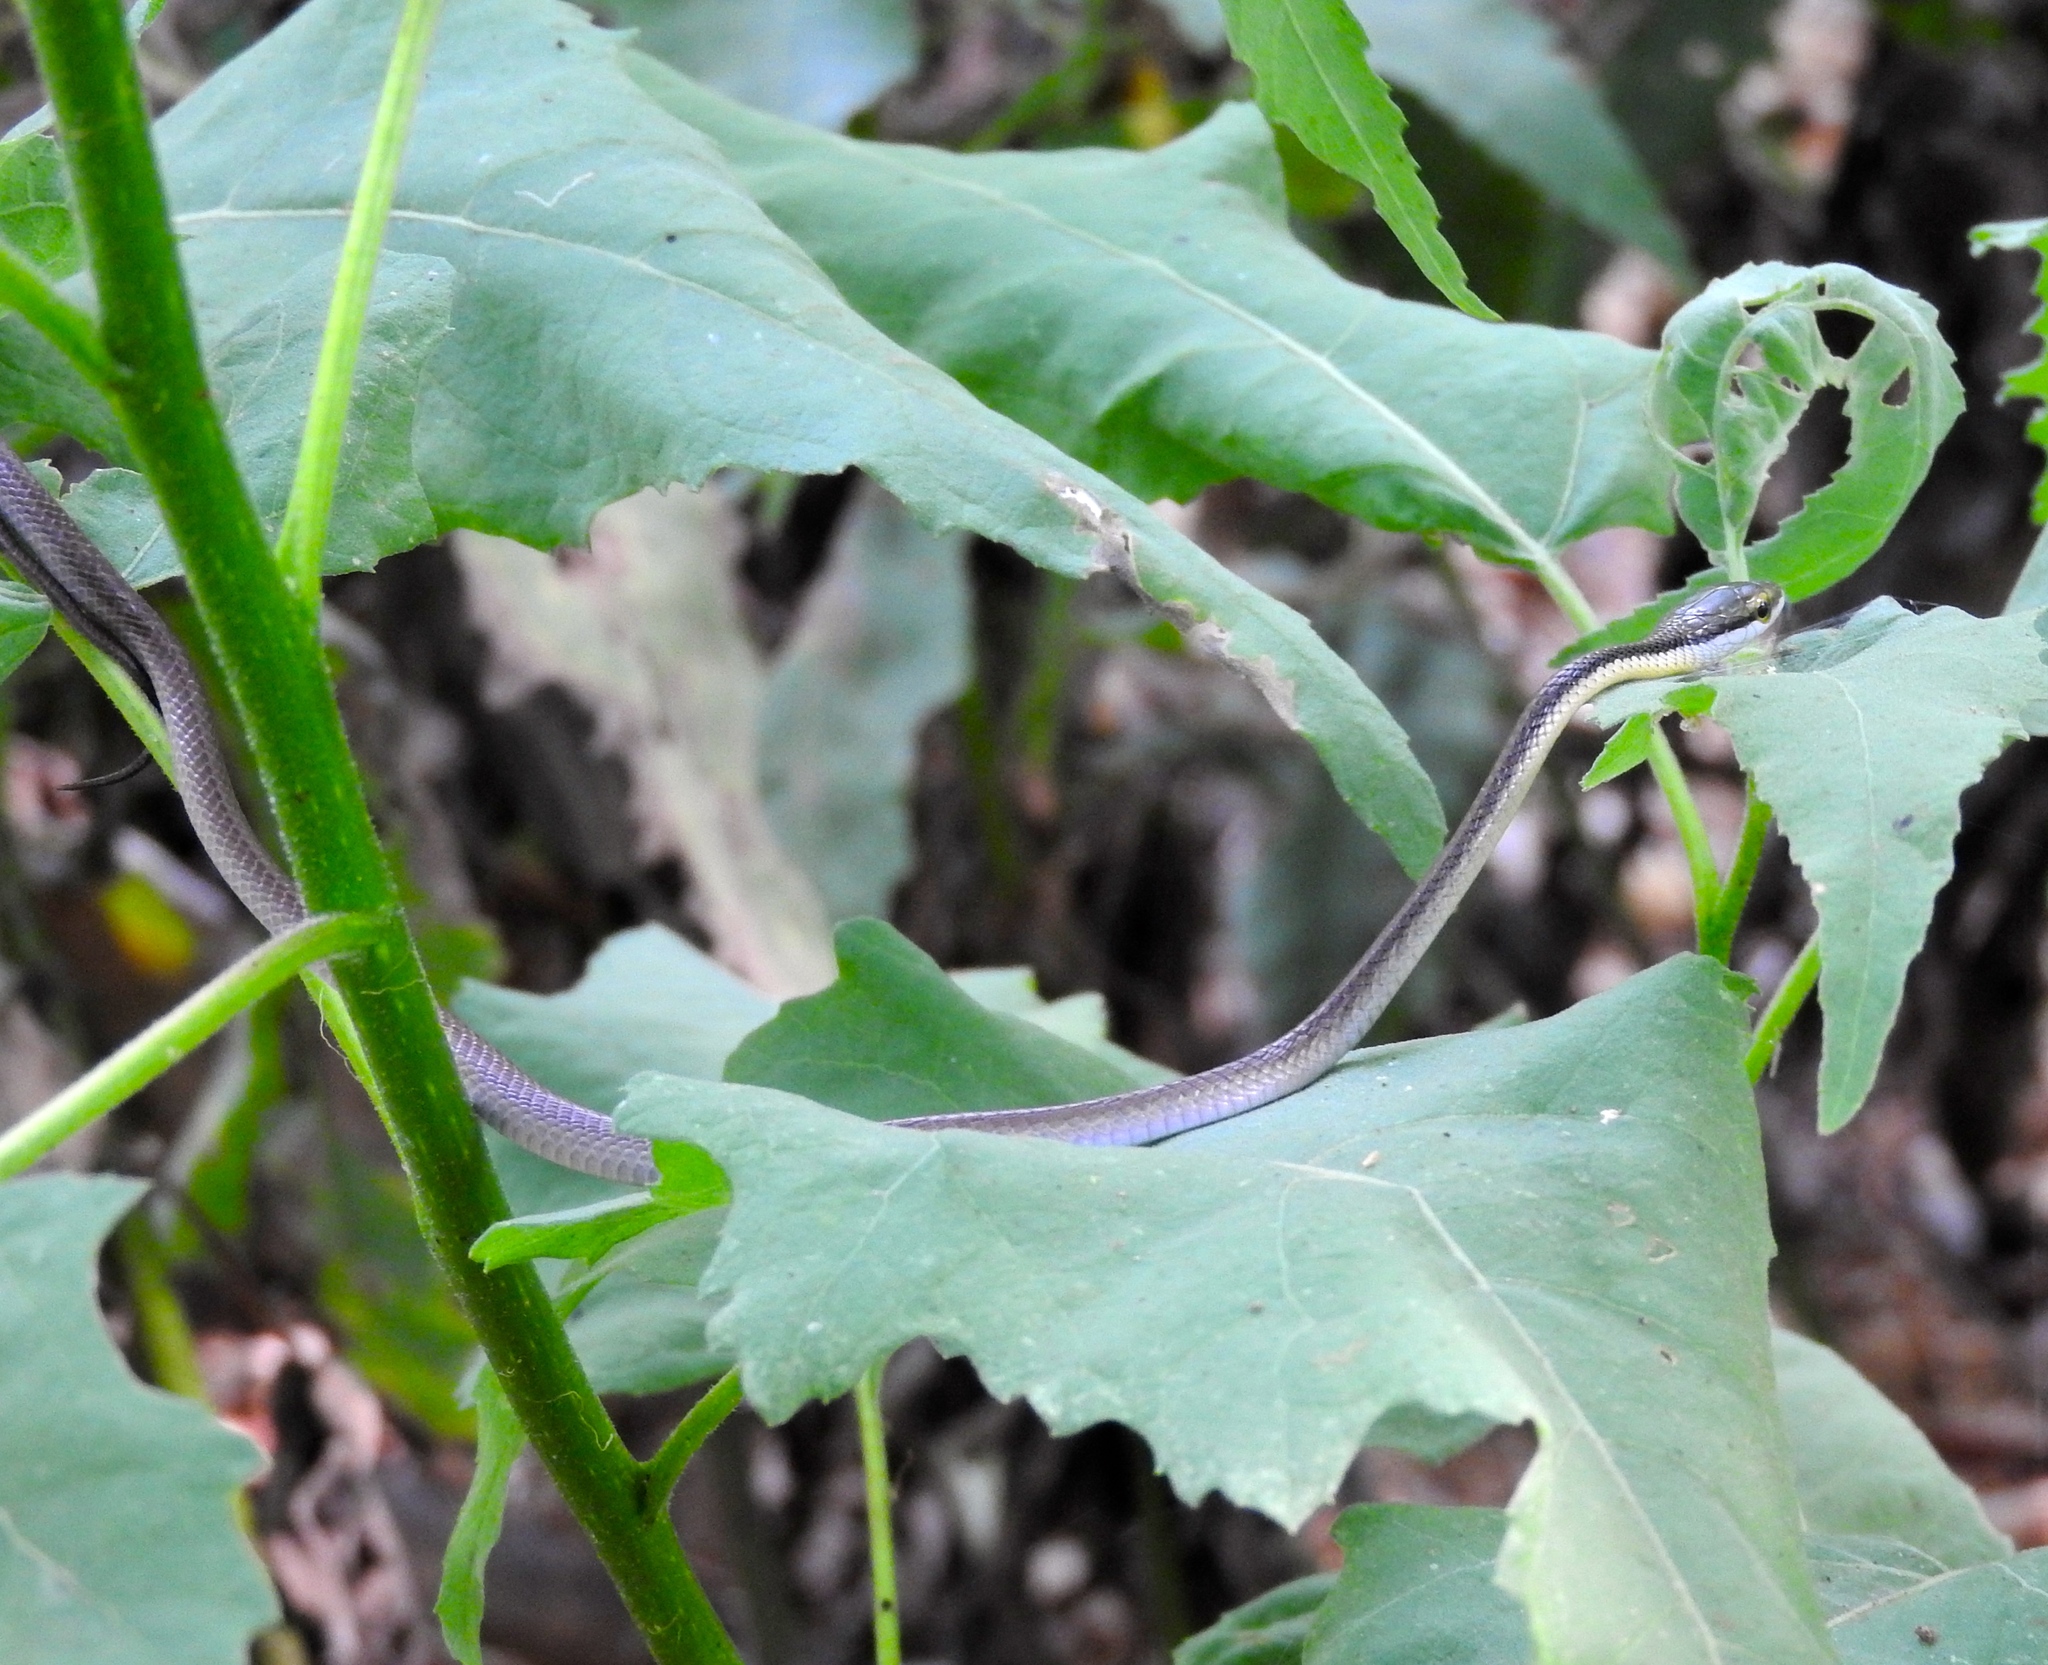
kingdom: Animalia
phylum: Chordata
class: Squamata
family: Colubridae
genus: Leptophis
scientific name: Leptophis diplotropis
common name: Pacific coast parrot snake
